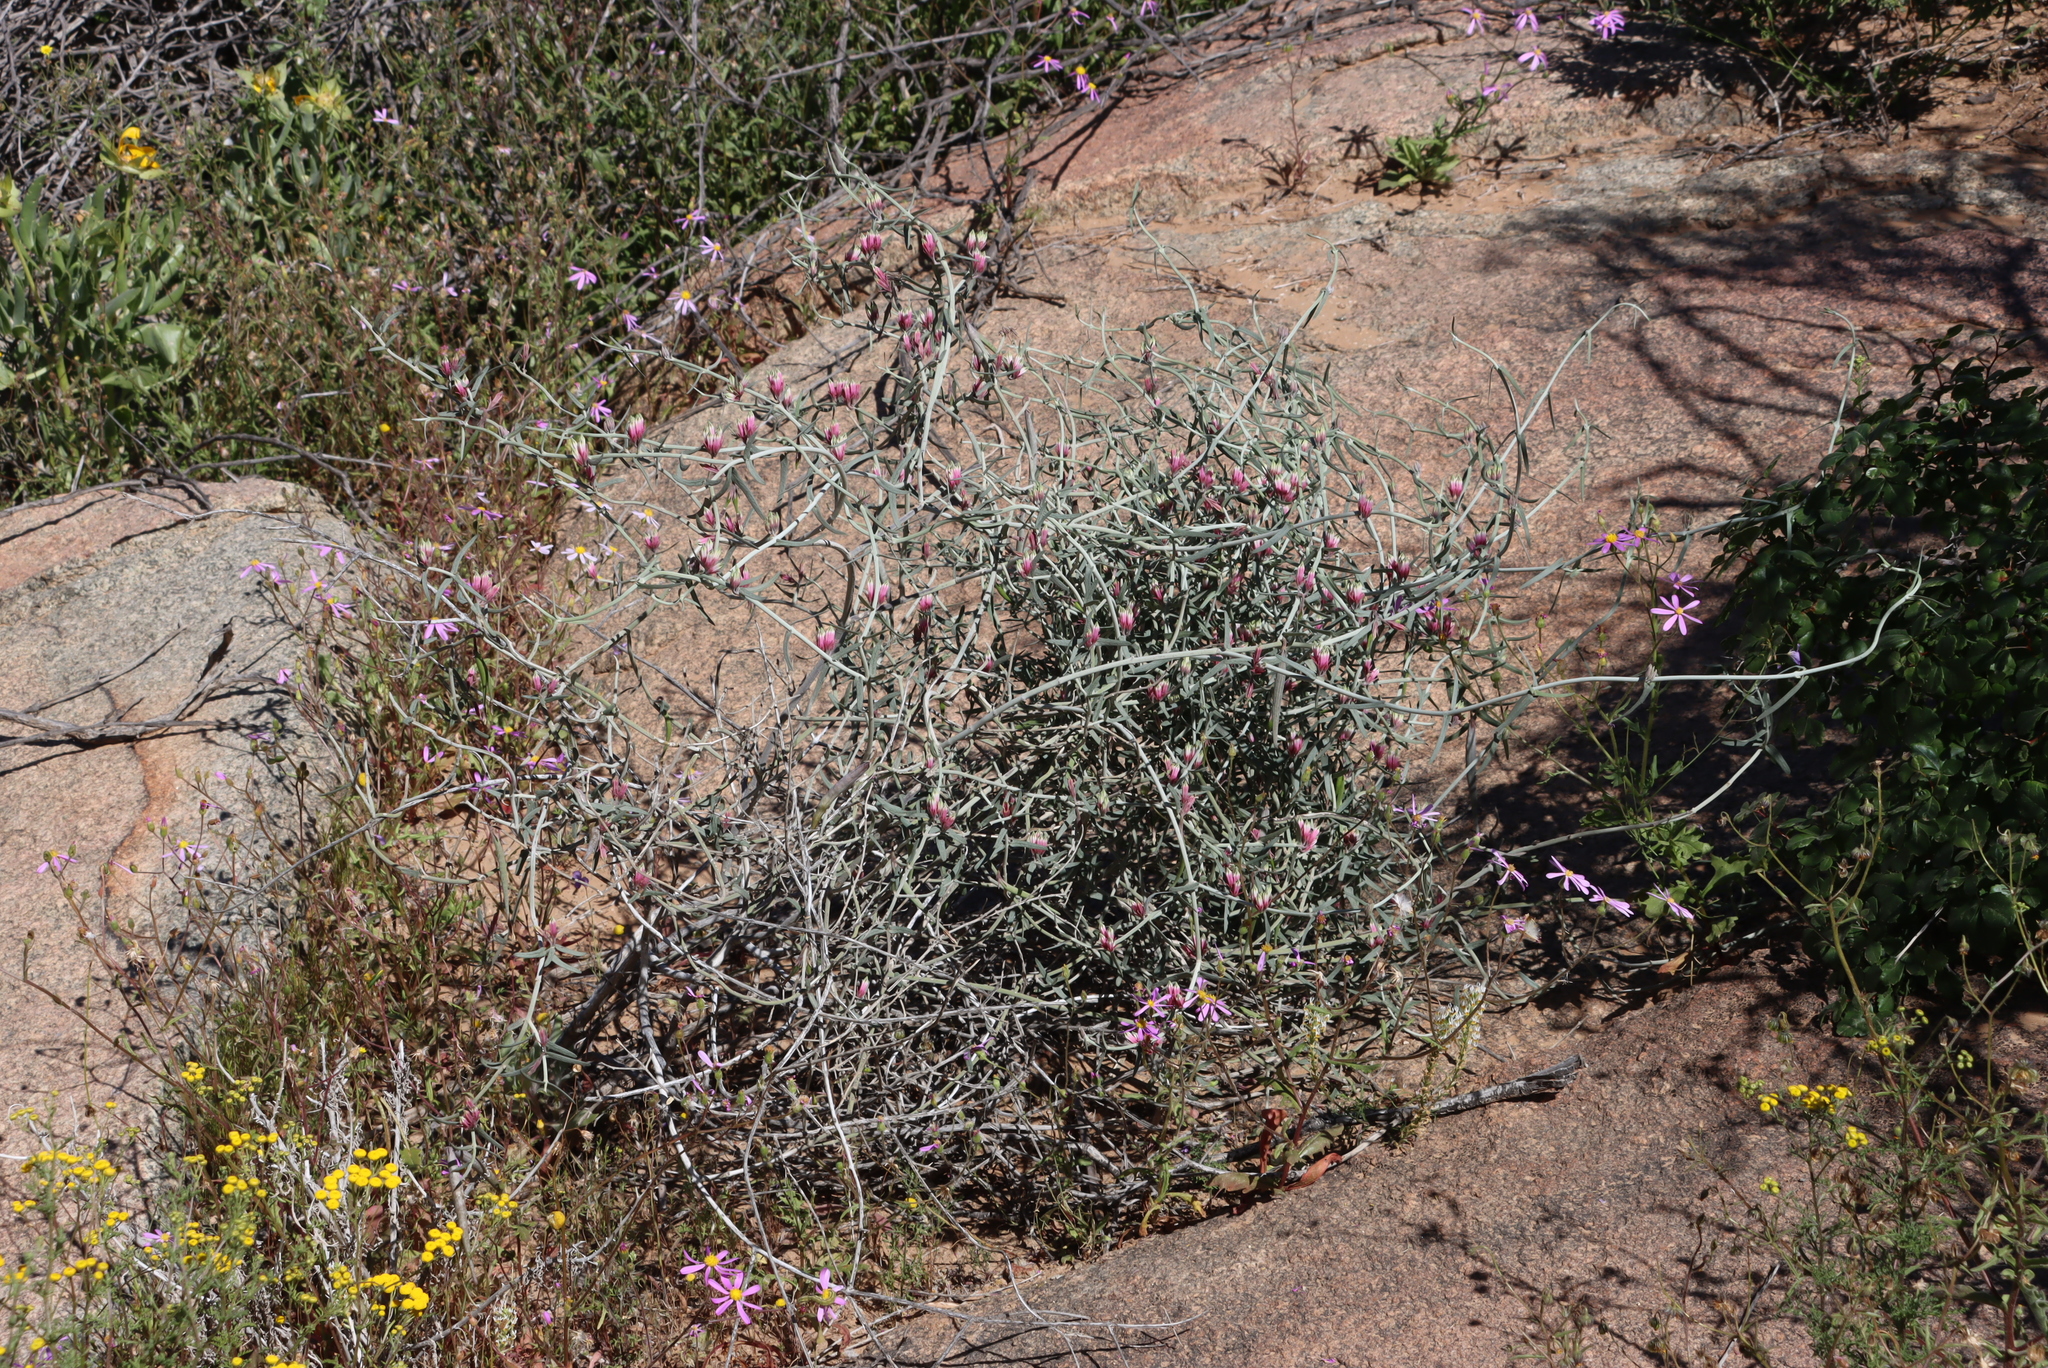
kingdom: Plantae
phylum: Tracheophyta
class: Magnoliopsida
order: Gentianales
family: Apocynaceae
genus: Microloma
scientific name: Microloma incanum
